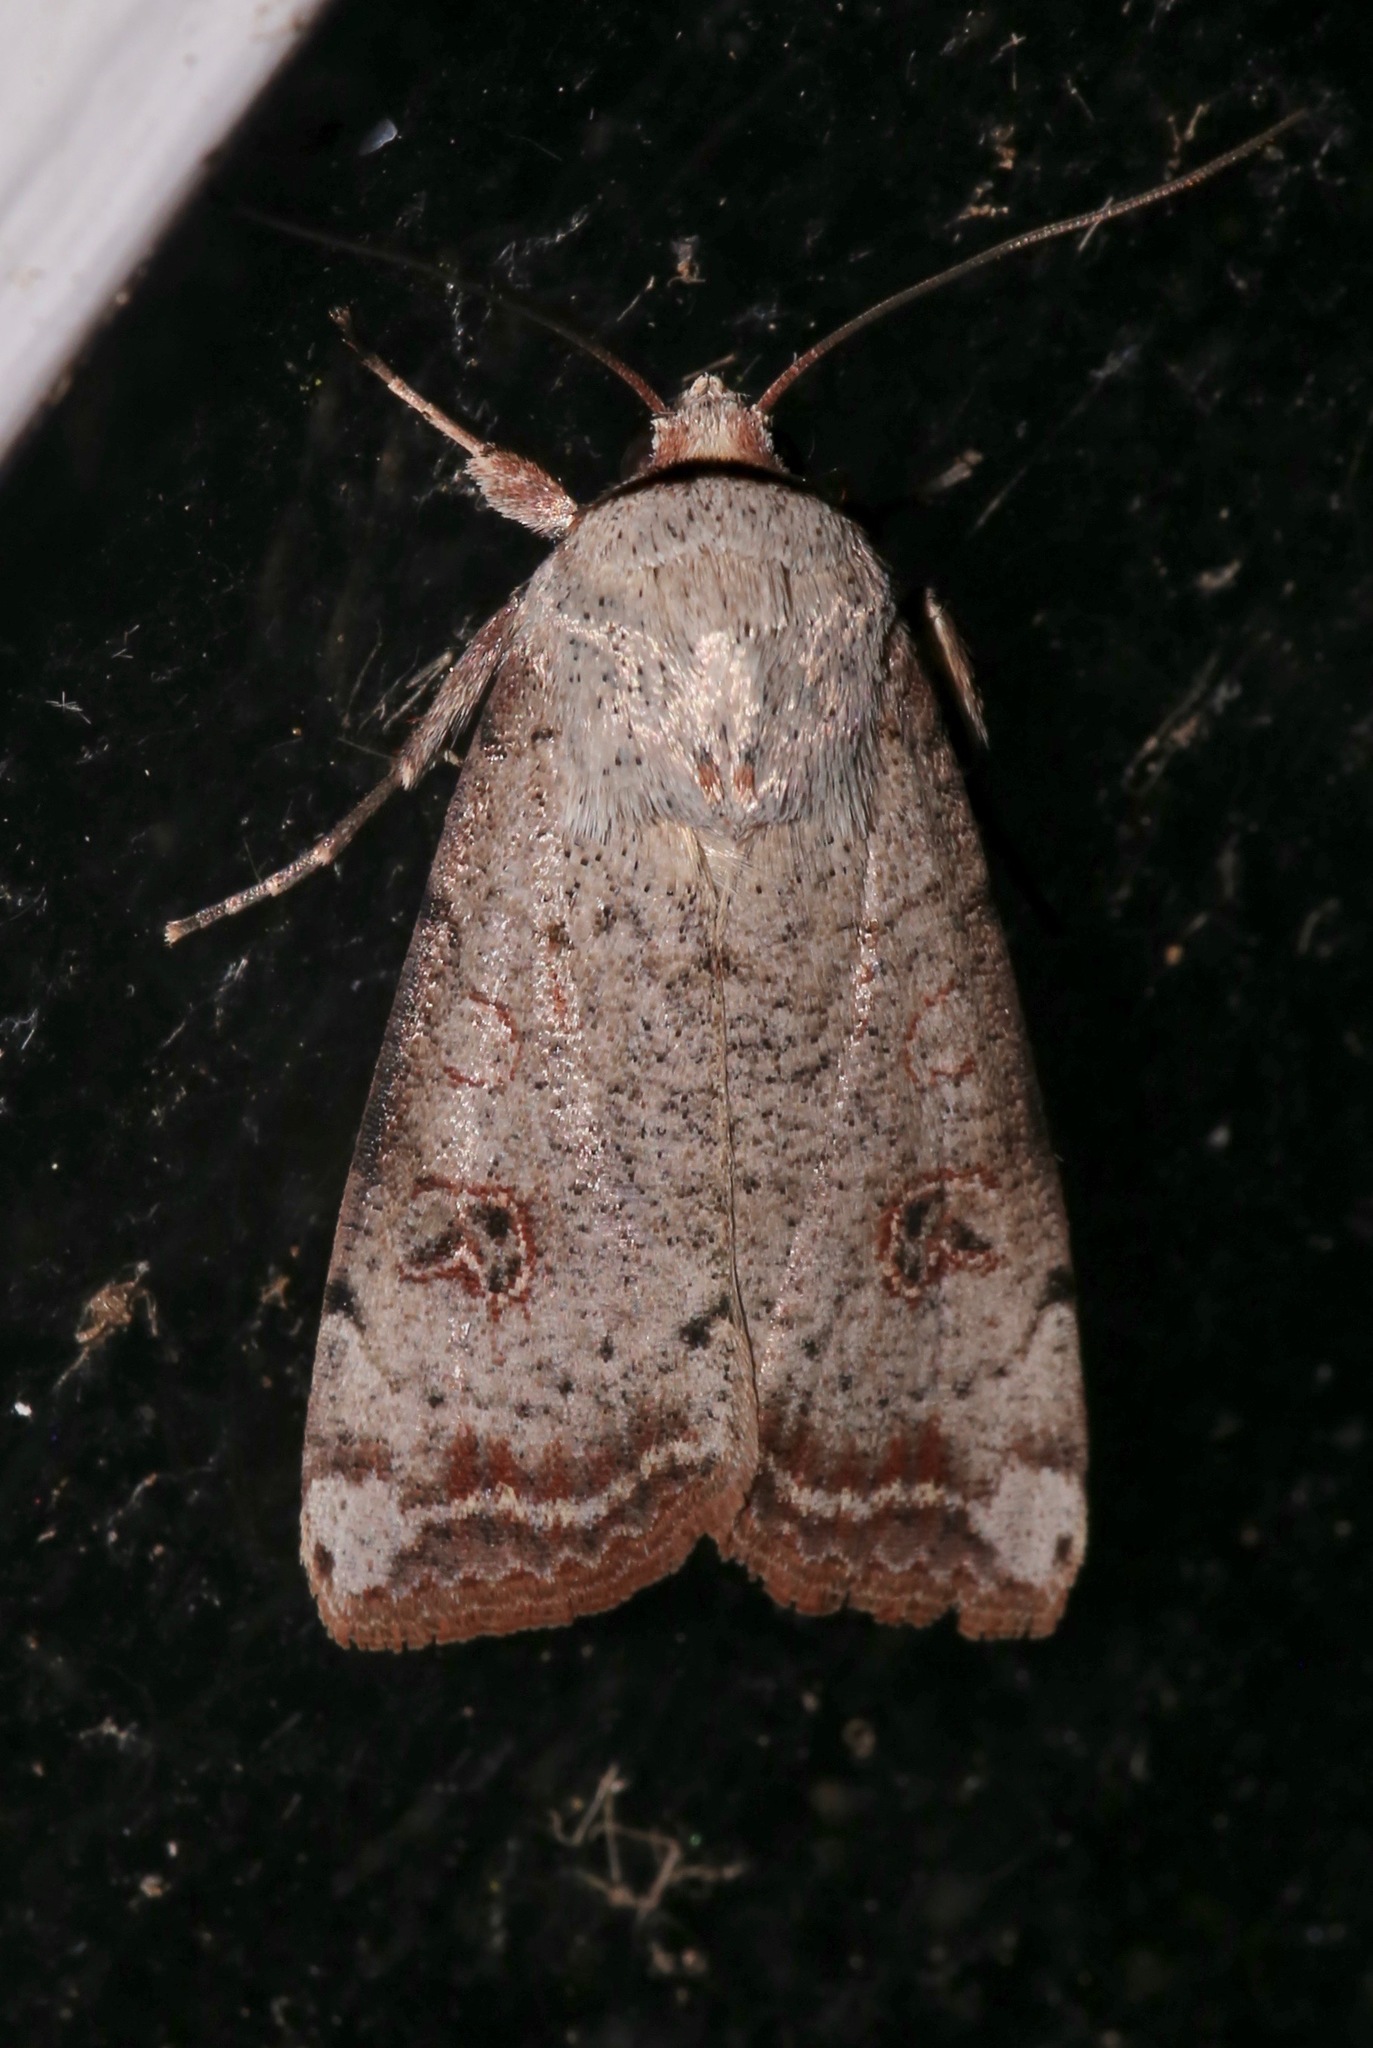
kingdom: Animalia
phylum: Arthropoda
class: Insecta
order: Lepidoptera
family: Noctuidae
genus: Anicla
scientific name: Anicla infecta
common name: Green cutworm
